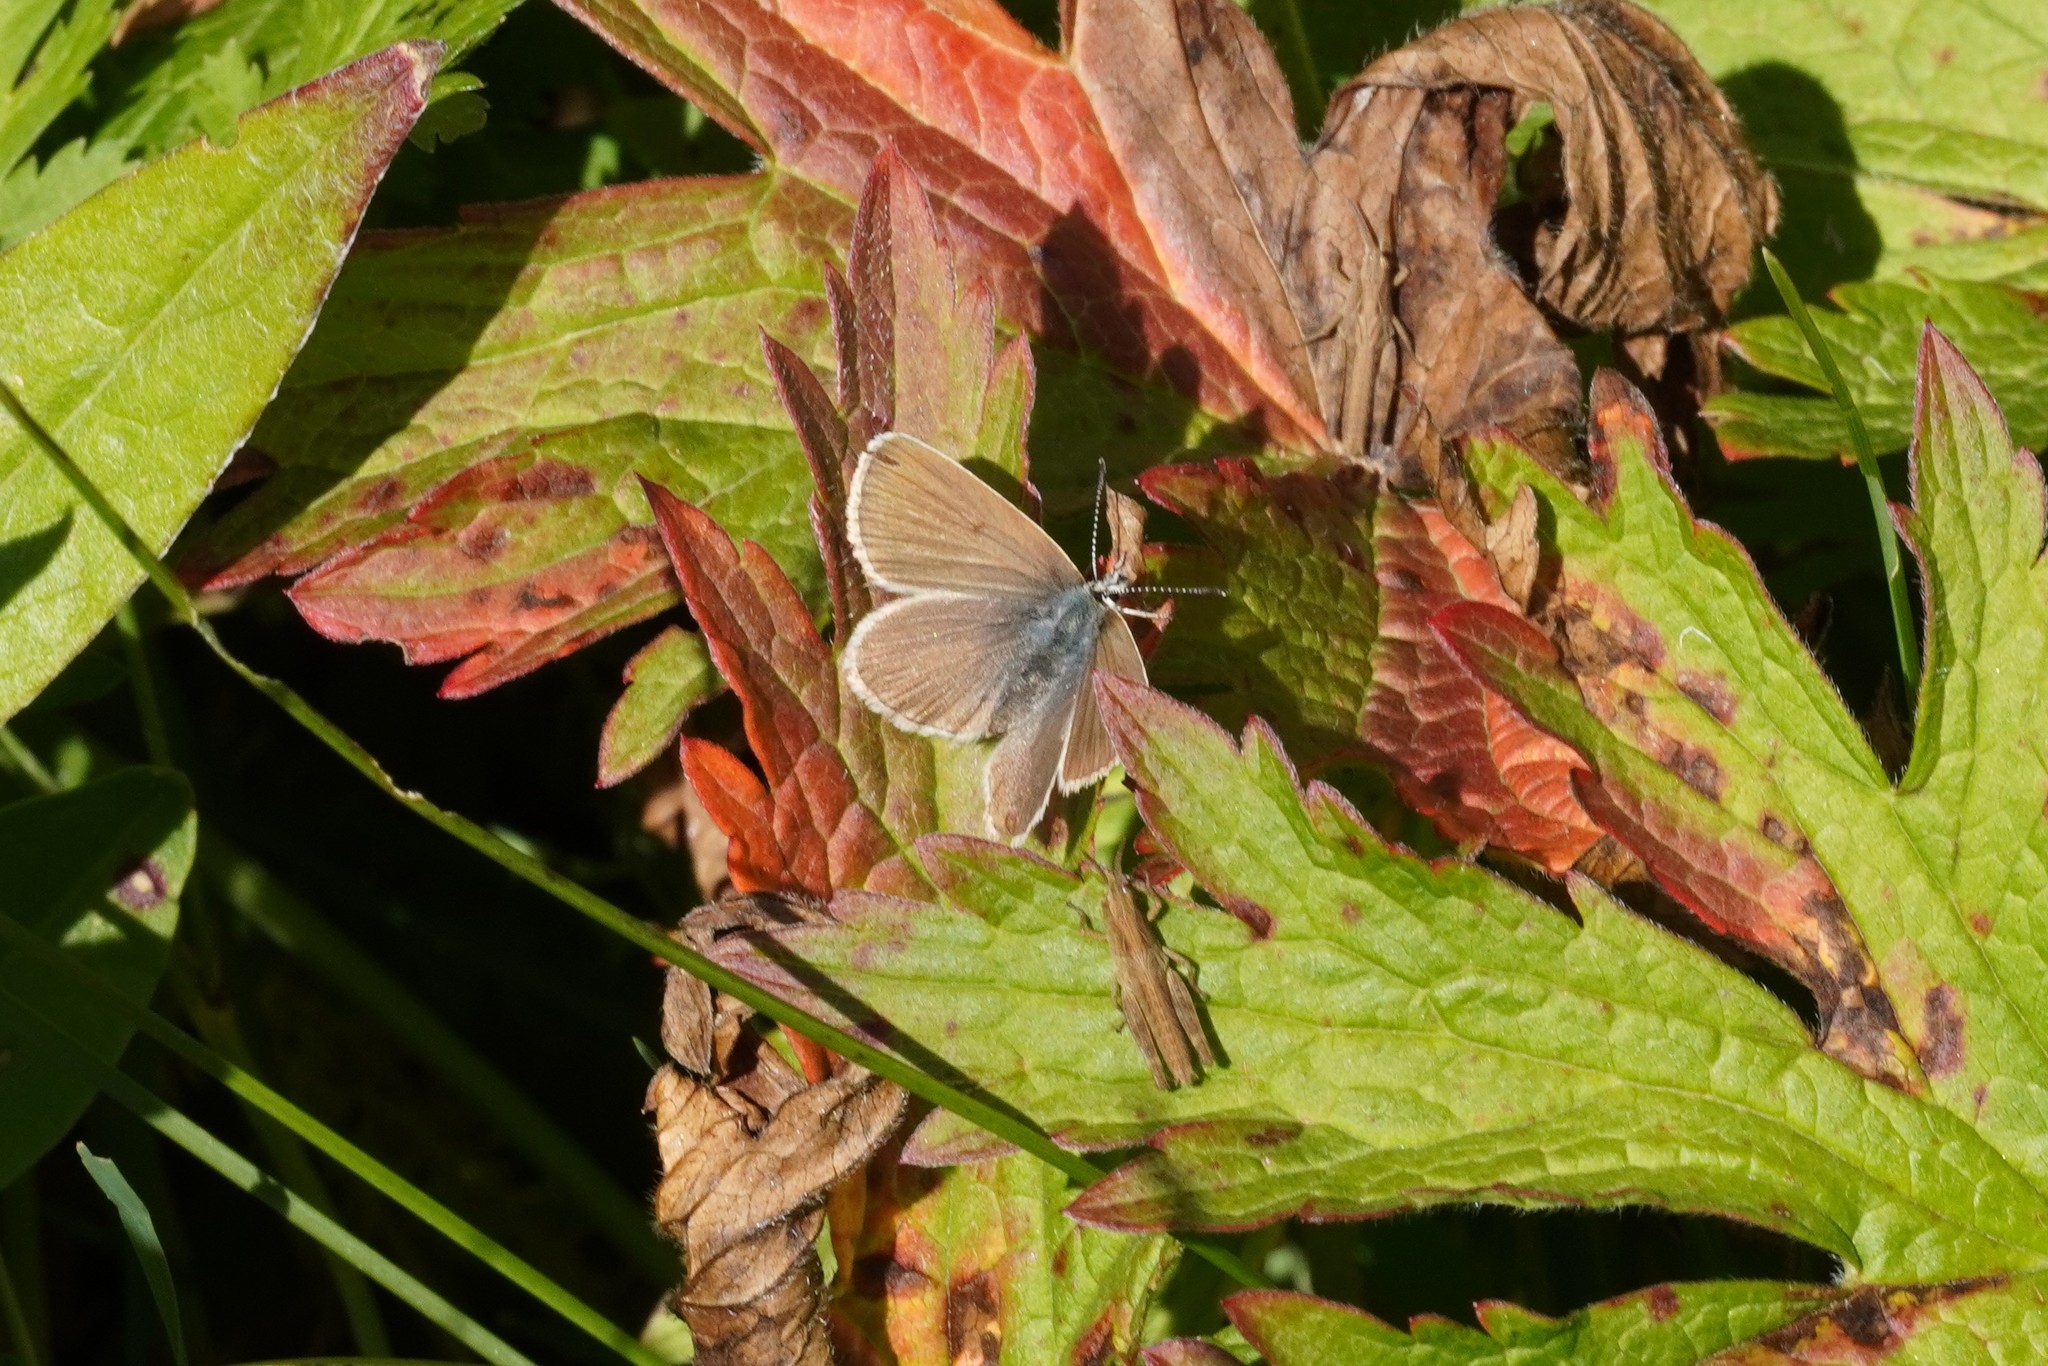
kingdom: Animalia
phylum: Arthropoda
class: Insecta
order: Lepidoptera
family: Lycaenidae
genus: Pseudoaricia
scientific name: Pseudoaricia nicias
